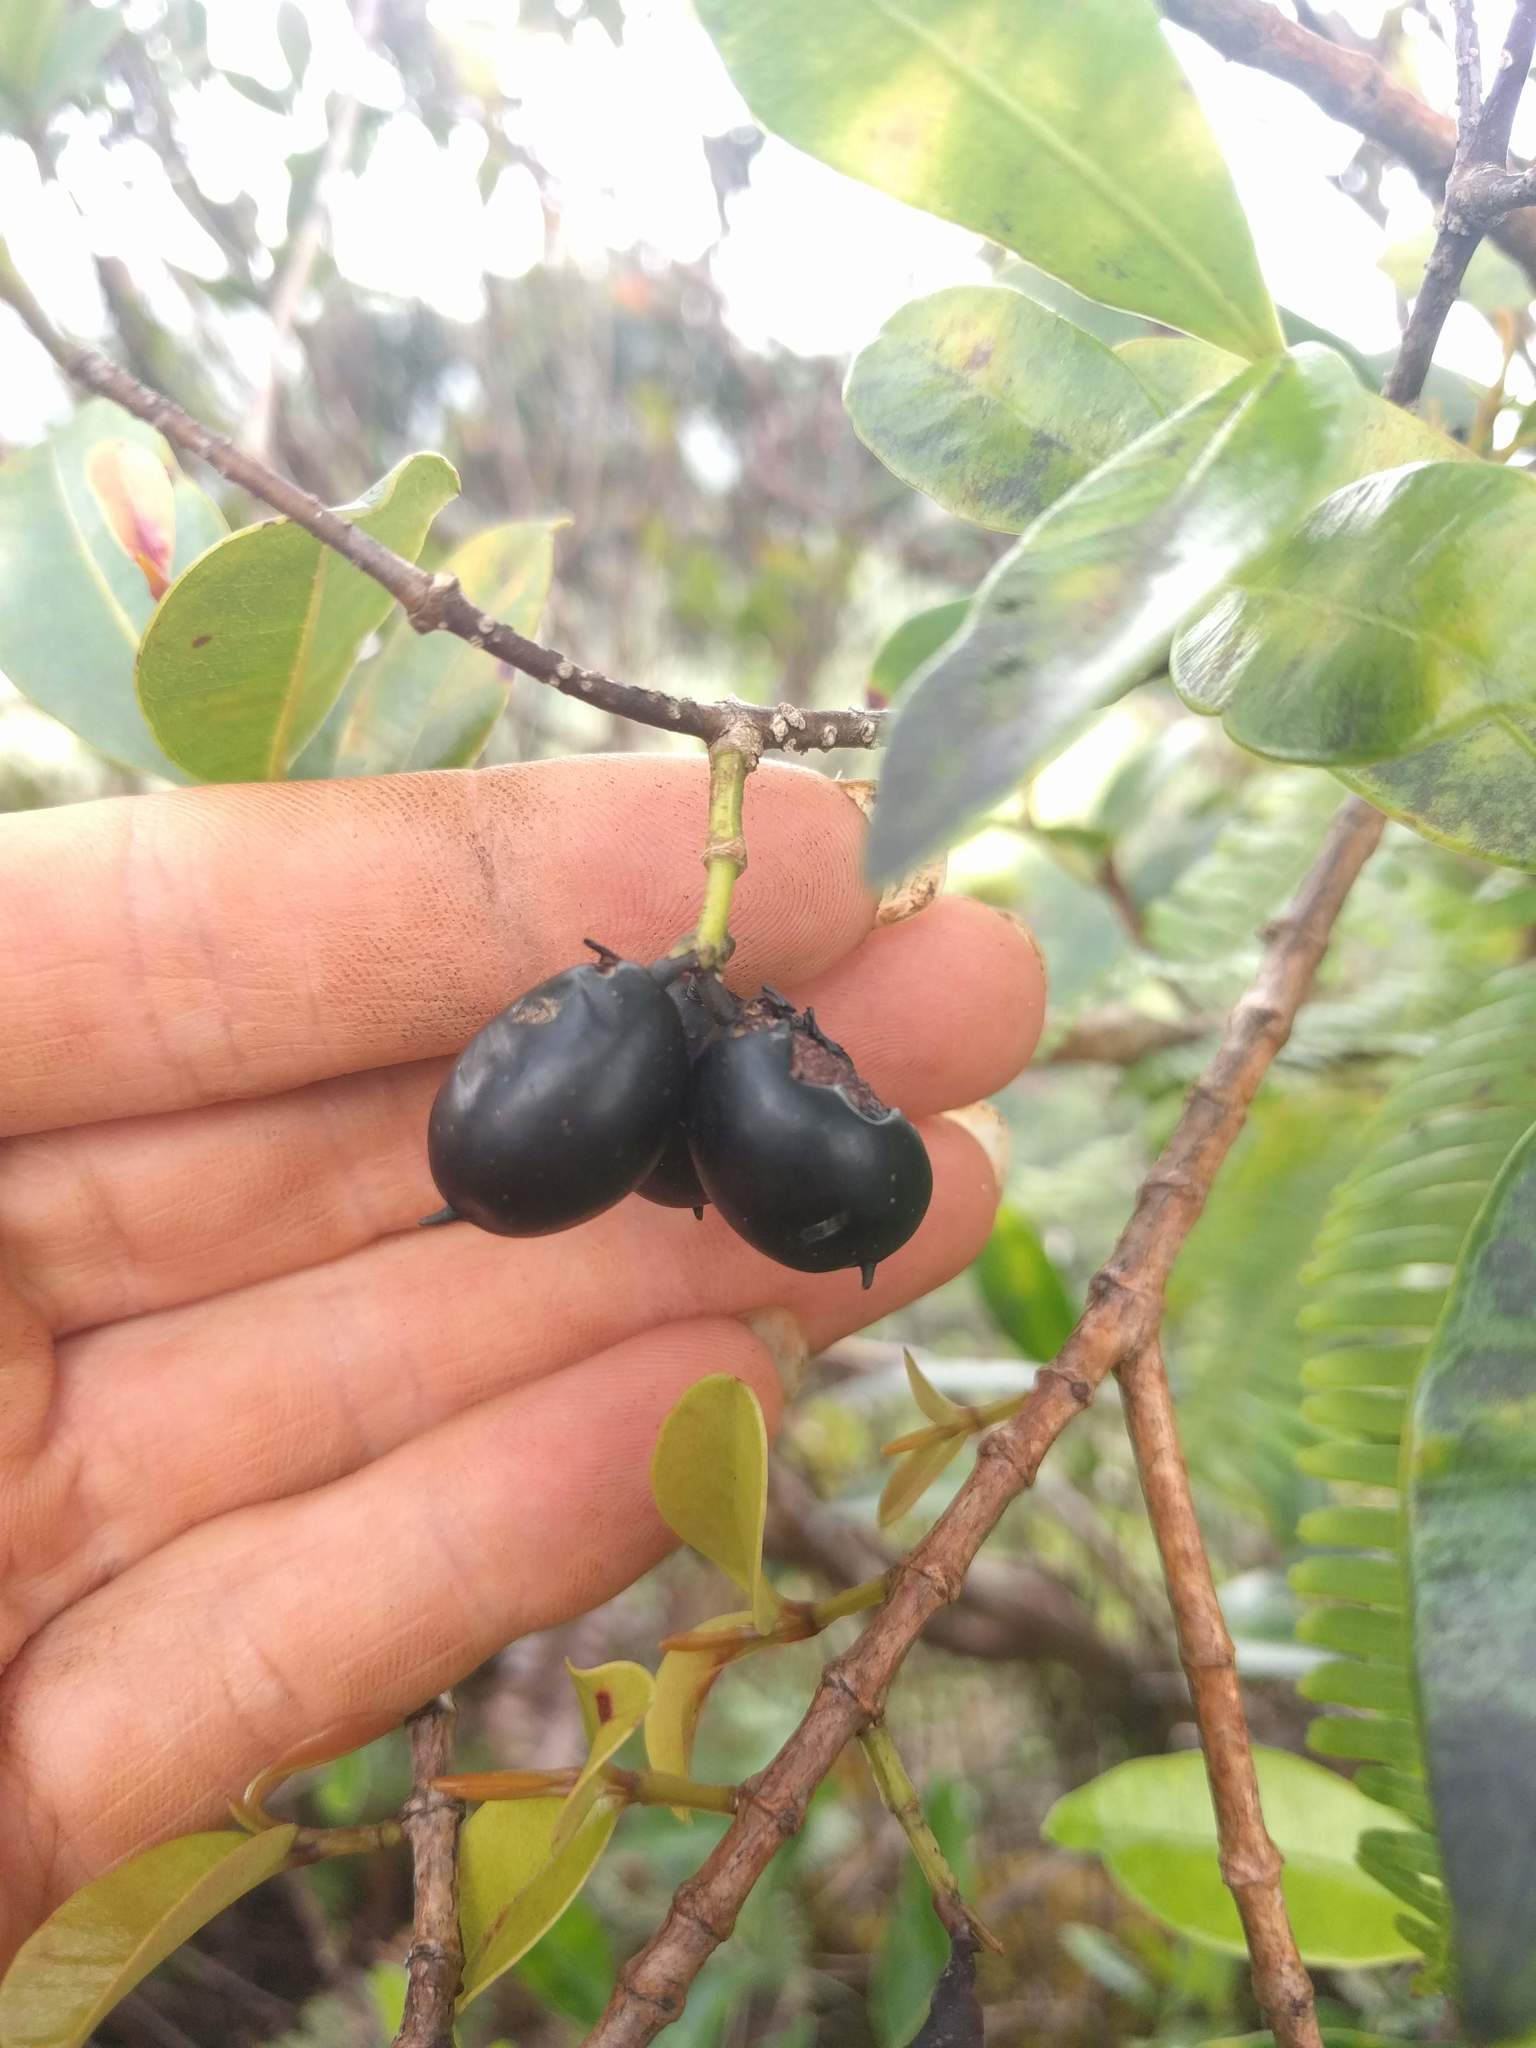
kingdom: Plantae
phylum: Tracheophyta
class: Magnoliopsida
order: Gentianales
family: Apocynaceae
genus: Alyxia
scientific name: Alyxia stellata
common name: Maile
